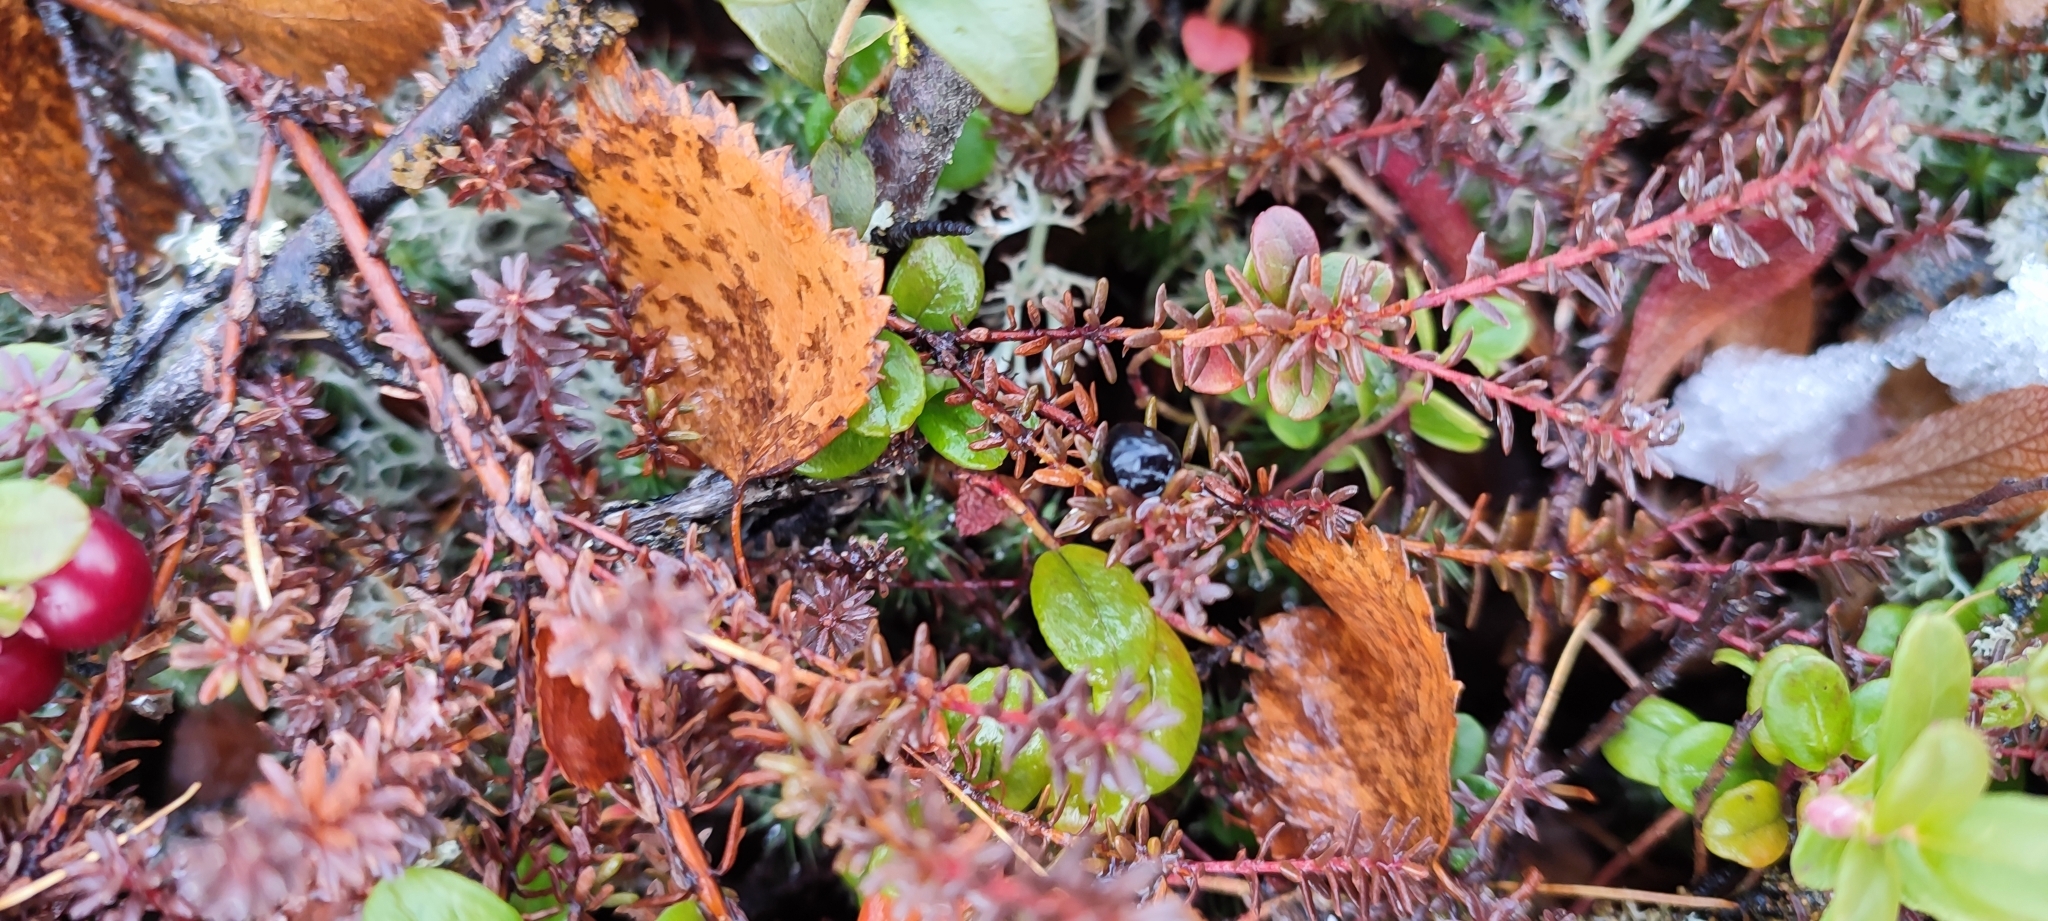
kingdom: Plantae
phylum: Tracheophyta
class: Magnoliopsida
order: Ericales
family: Ericaceae
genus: Empetrum
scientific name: Empetrum nigrum
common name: Black crowberry
